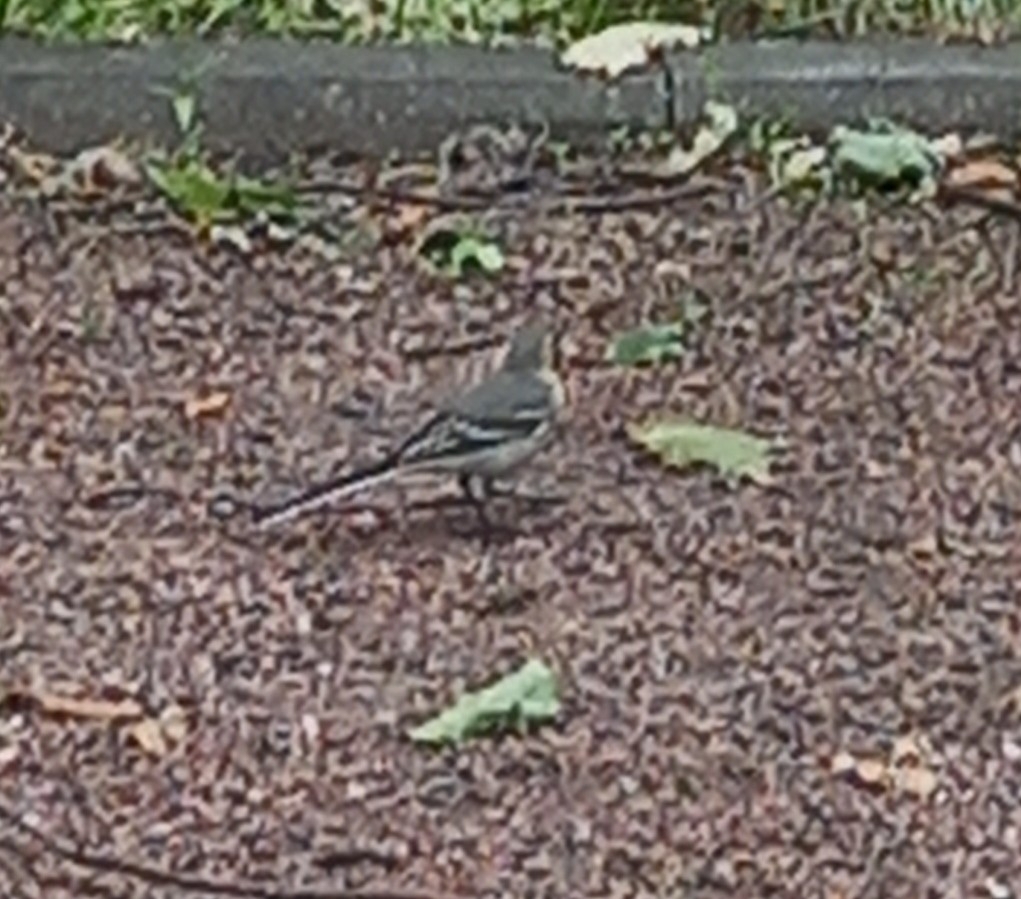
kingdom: Animalia
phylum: Chordata
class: Aves
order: Passeriformes
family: Motacillidae
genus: Motacilla
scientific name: Motacilla alba
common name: White wagtail
